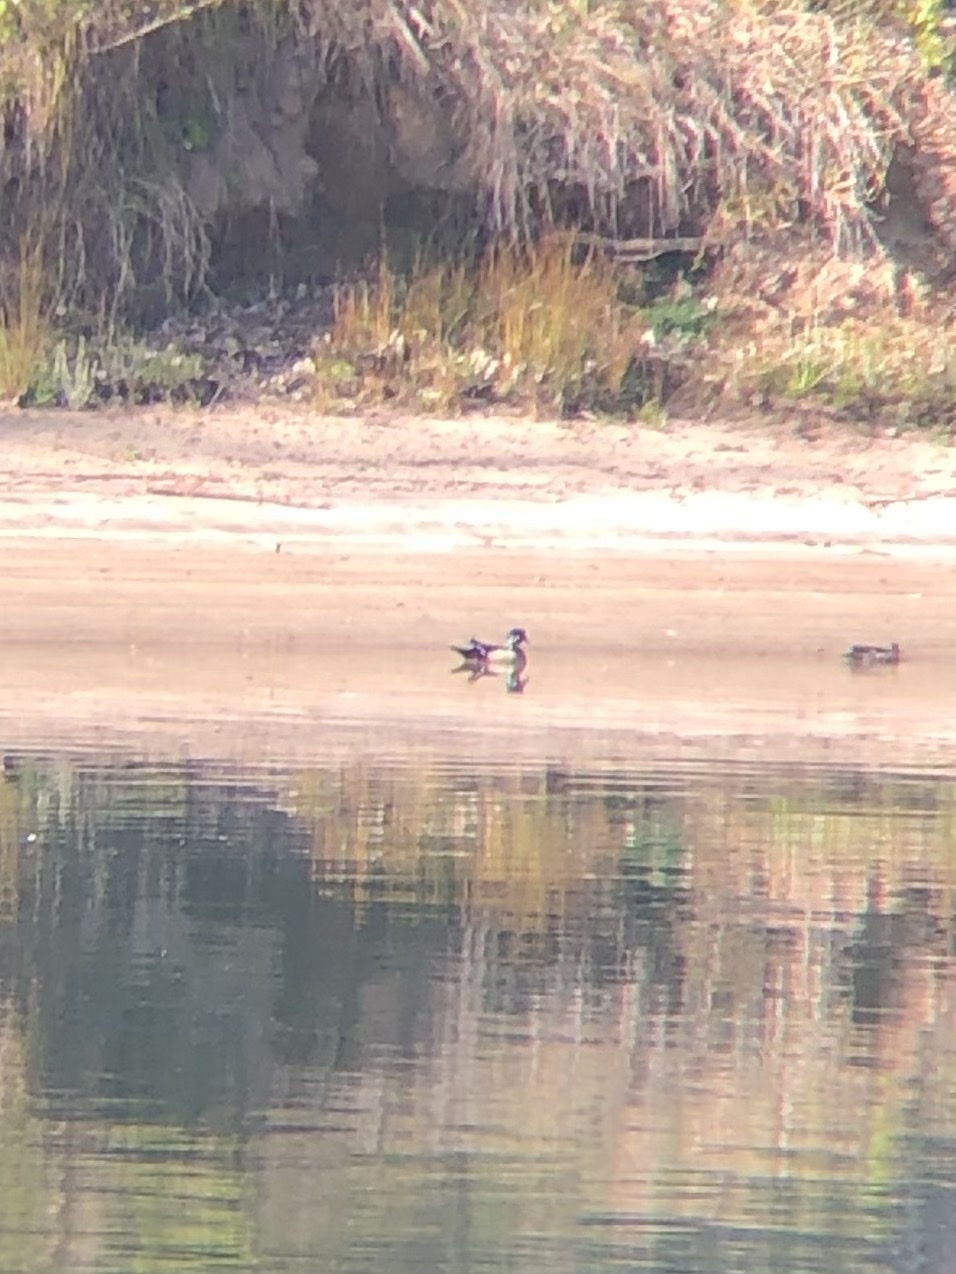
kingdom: Animalia
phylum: Chordata
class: Aves
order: Anseriformes
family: Anatidae
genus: Aix
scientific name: Aix sponsa
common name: Wood duck
